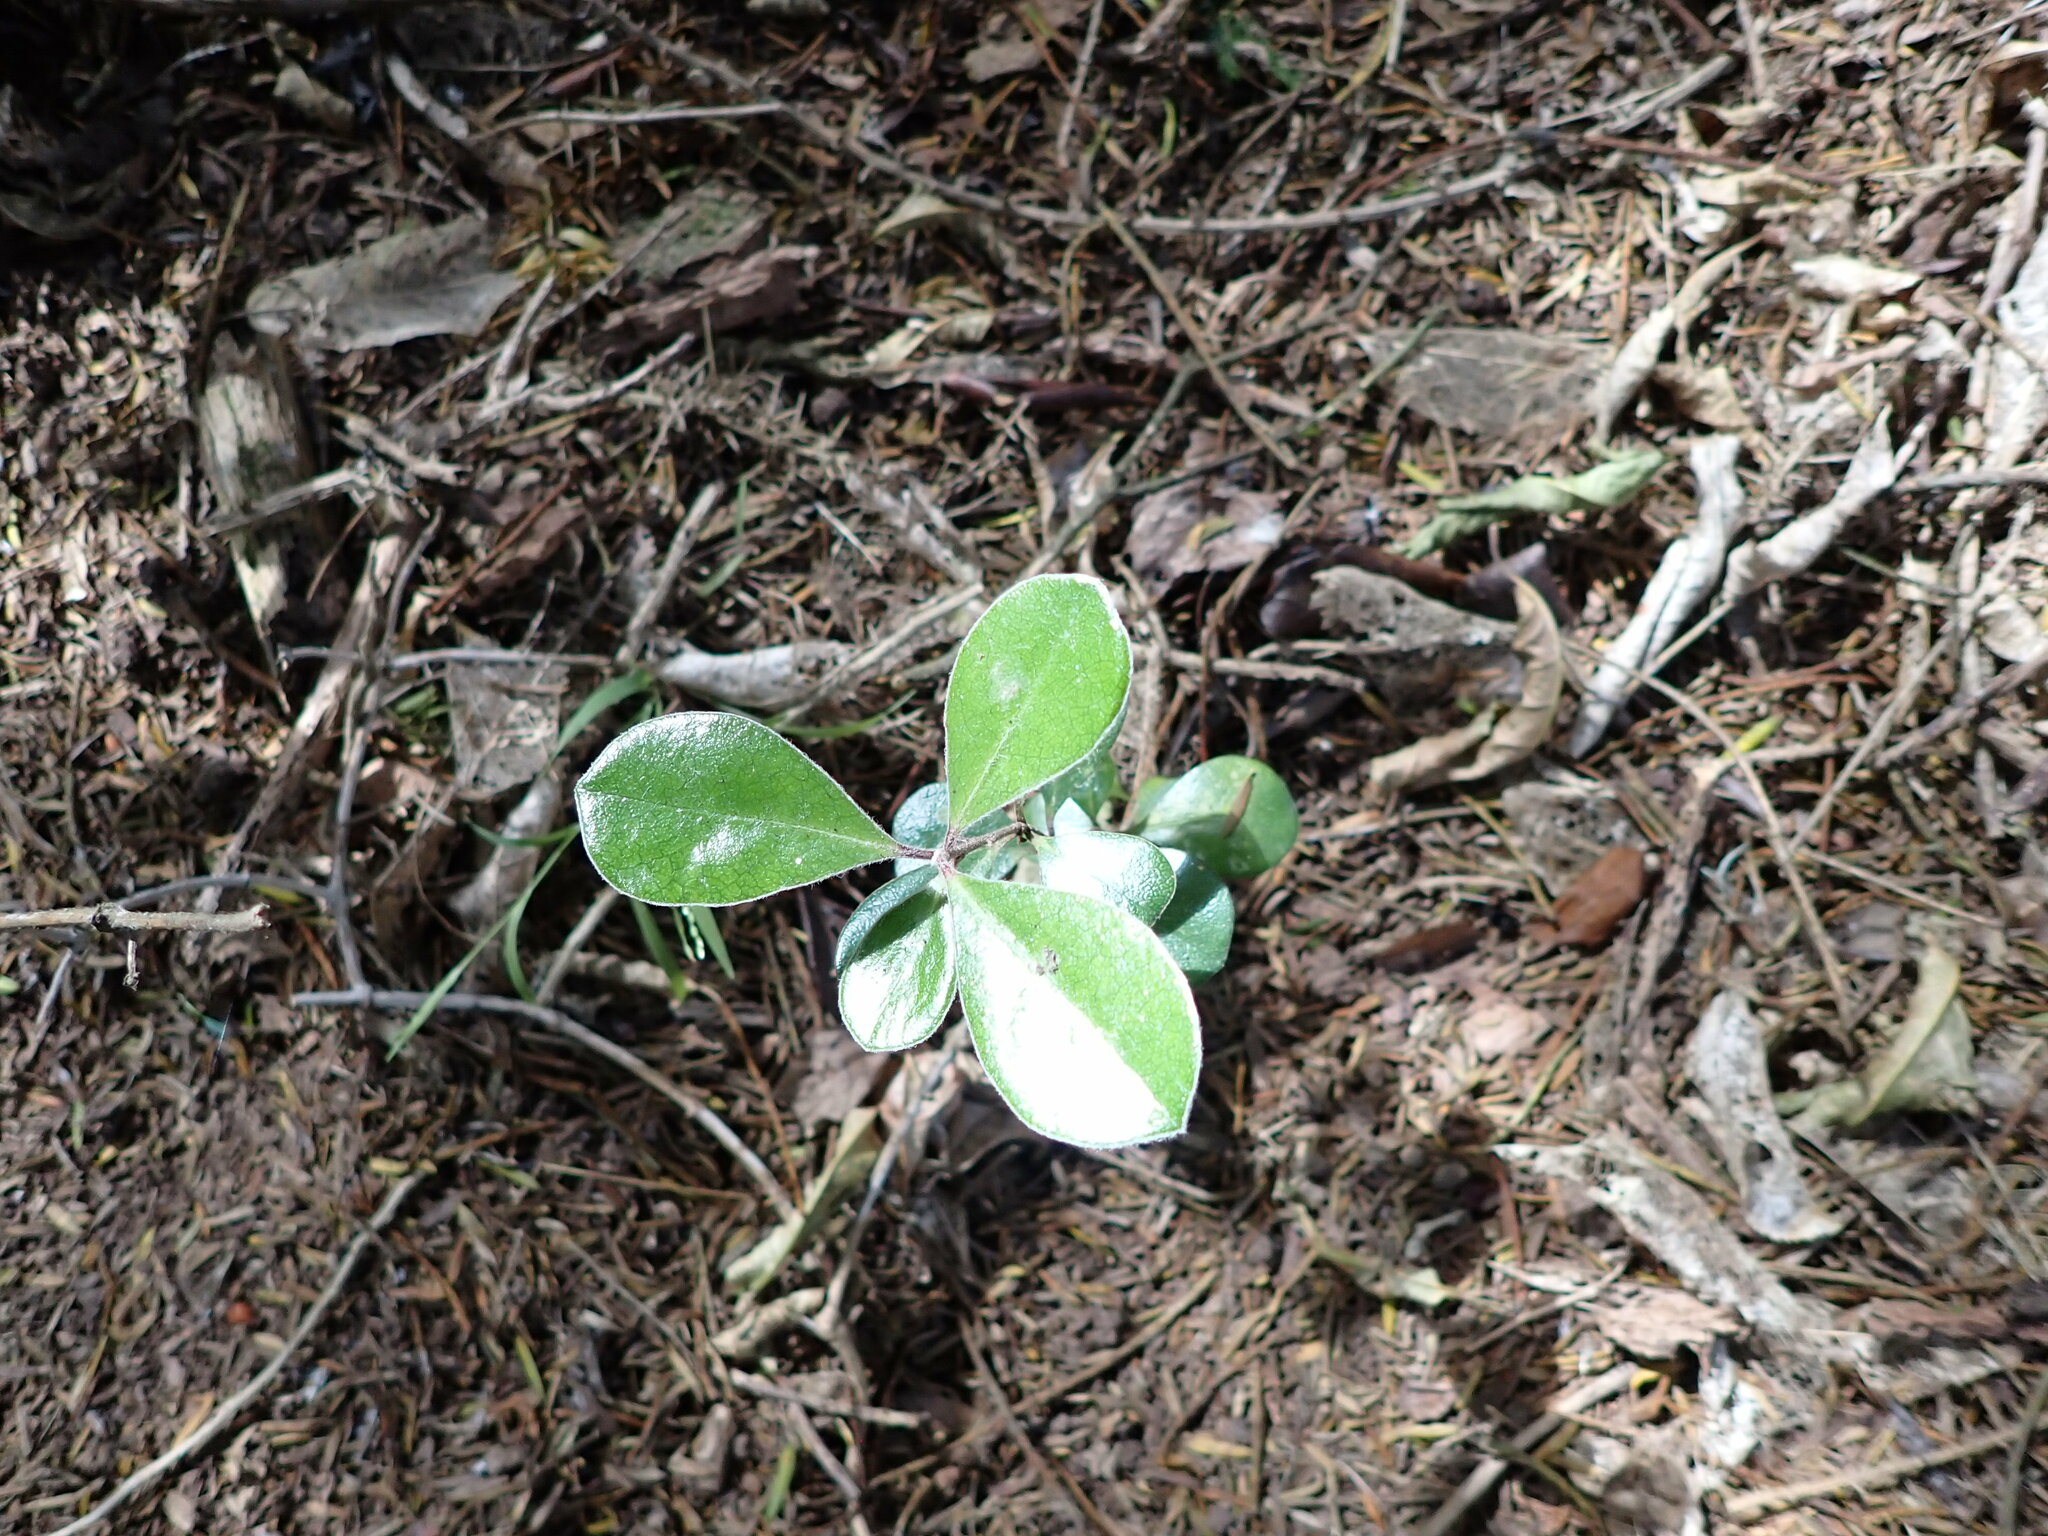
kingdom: Plantae
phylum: Tracheophyta
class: Magnoliopsida
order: Apiales
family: Pittosporaceae
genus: Pittosporum
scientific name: Pittosporum crassifolium
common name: Karo
